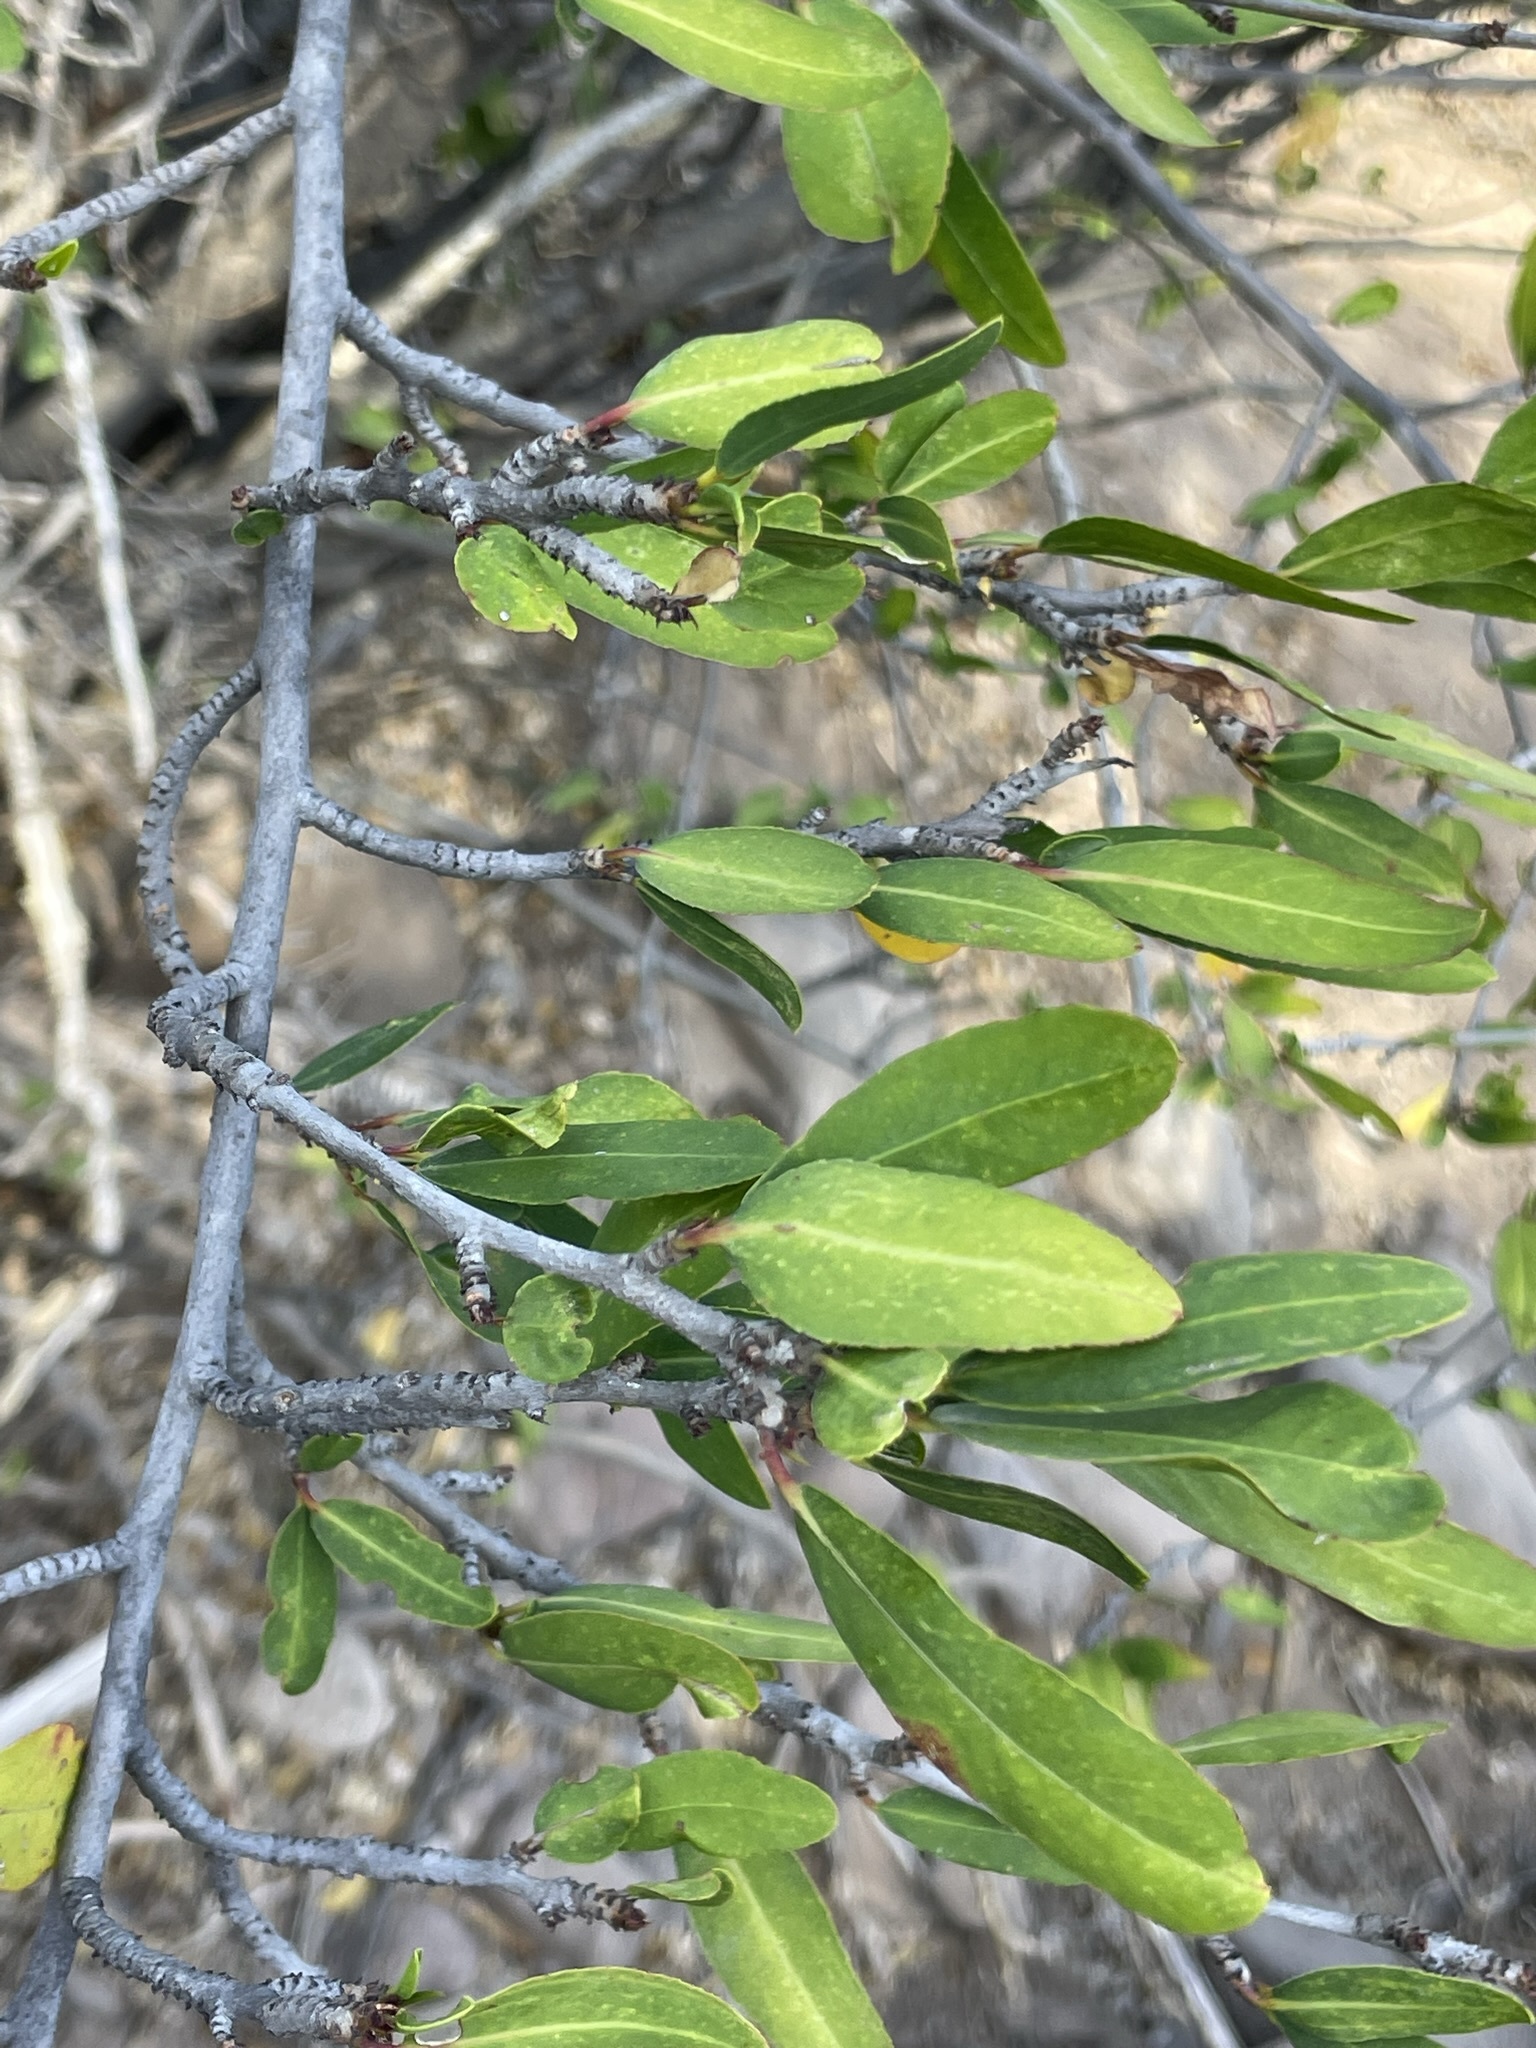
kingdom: Plantae
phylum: Tracheophyta
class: Magnoliopsida
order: Malpighiales
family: Euphorbiaceae
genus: Pleradenophora
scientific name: Pleradenophora bilocularis
